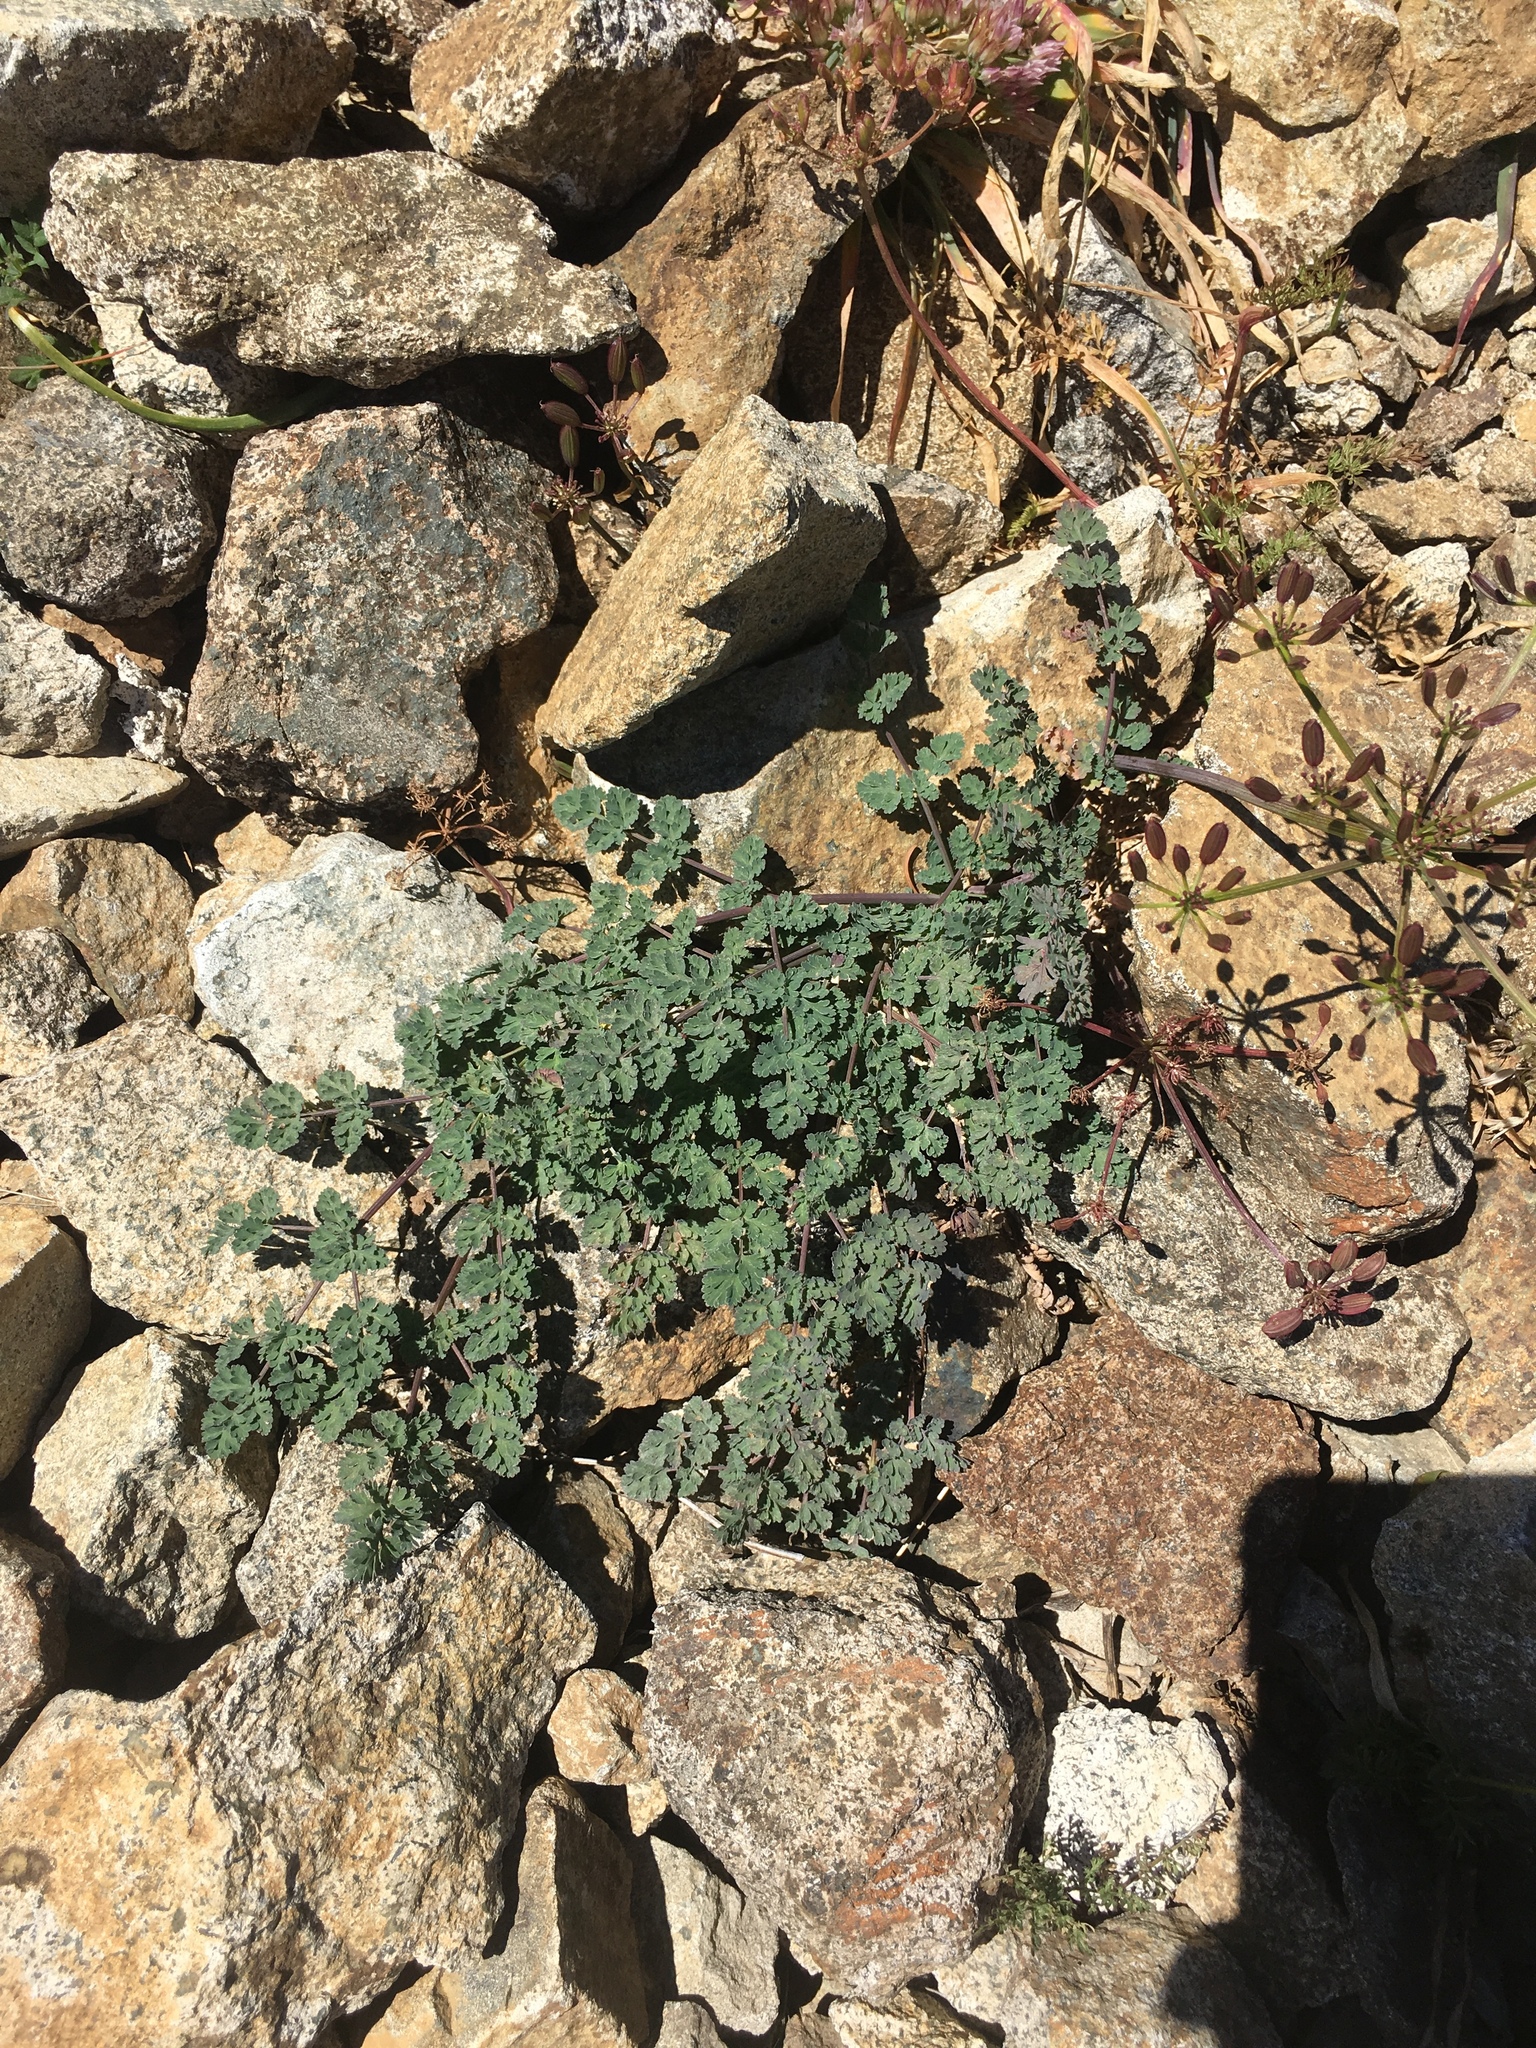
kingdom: Plantae
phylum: Tracheophyta
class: Magnoliopsida
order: Apiales
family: Apiaceae
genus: Lomatium
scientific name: Lomatium martindalei
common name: Cascade desert-parsley
